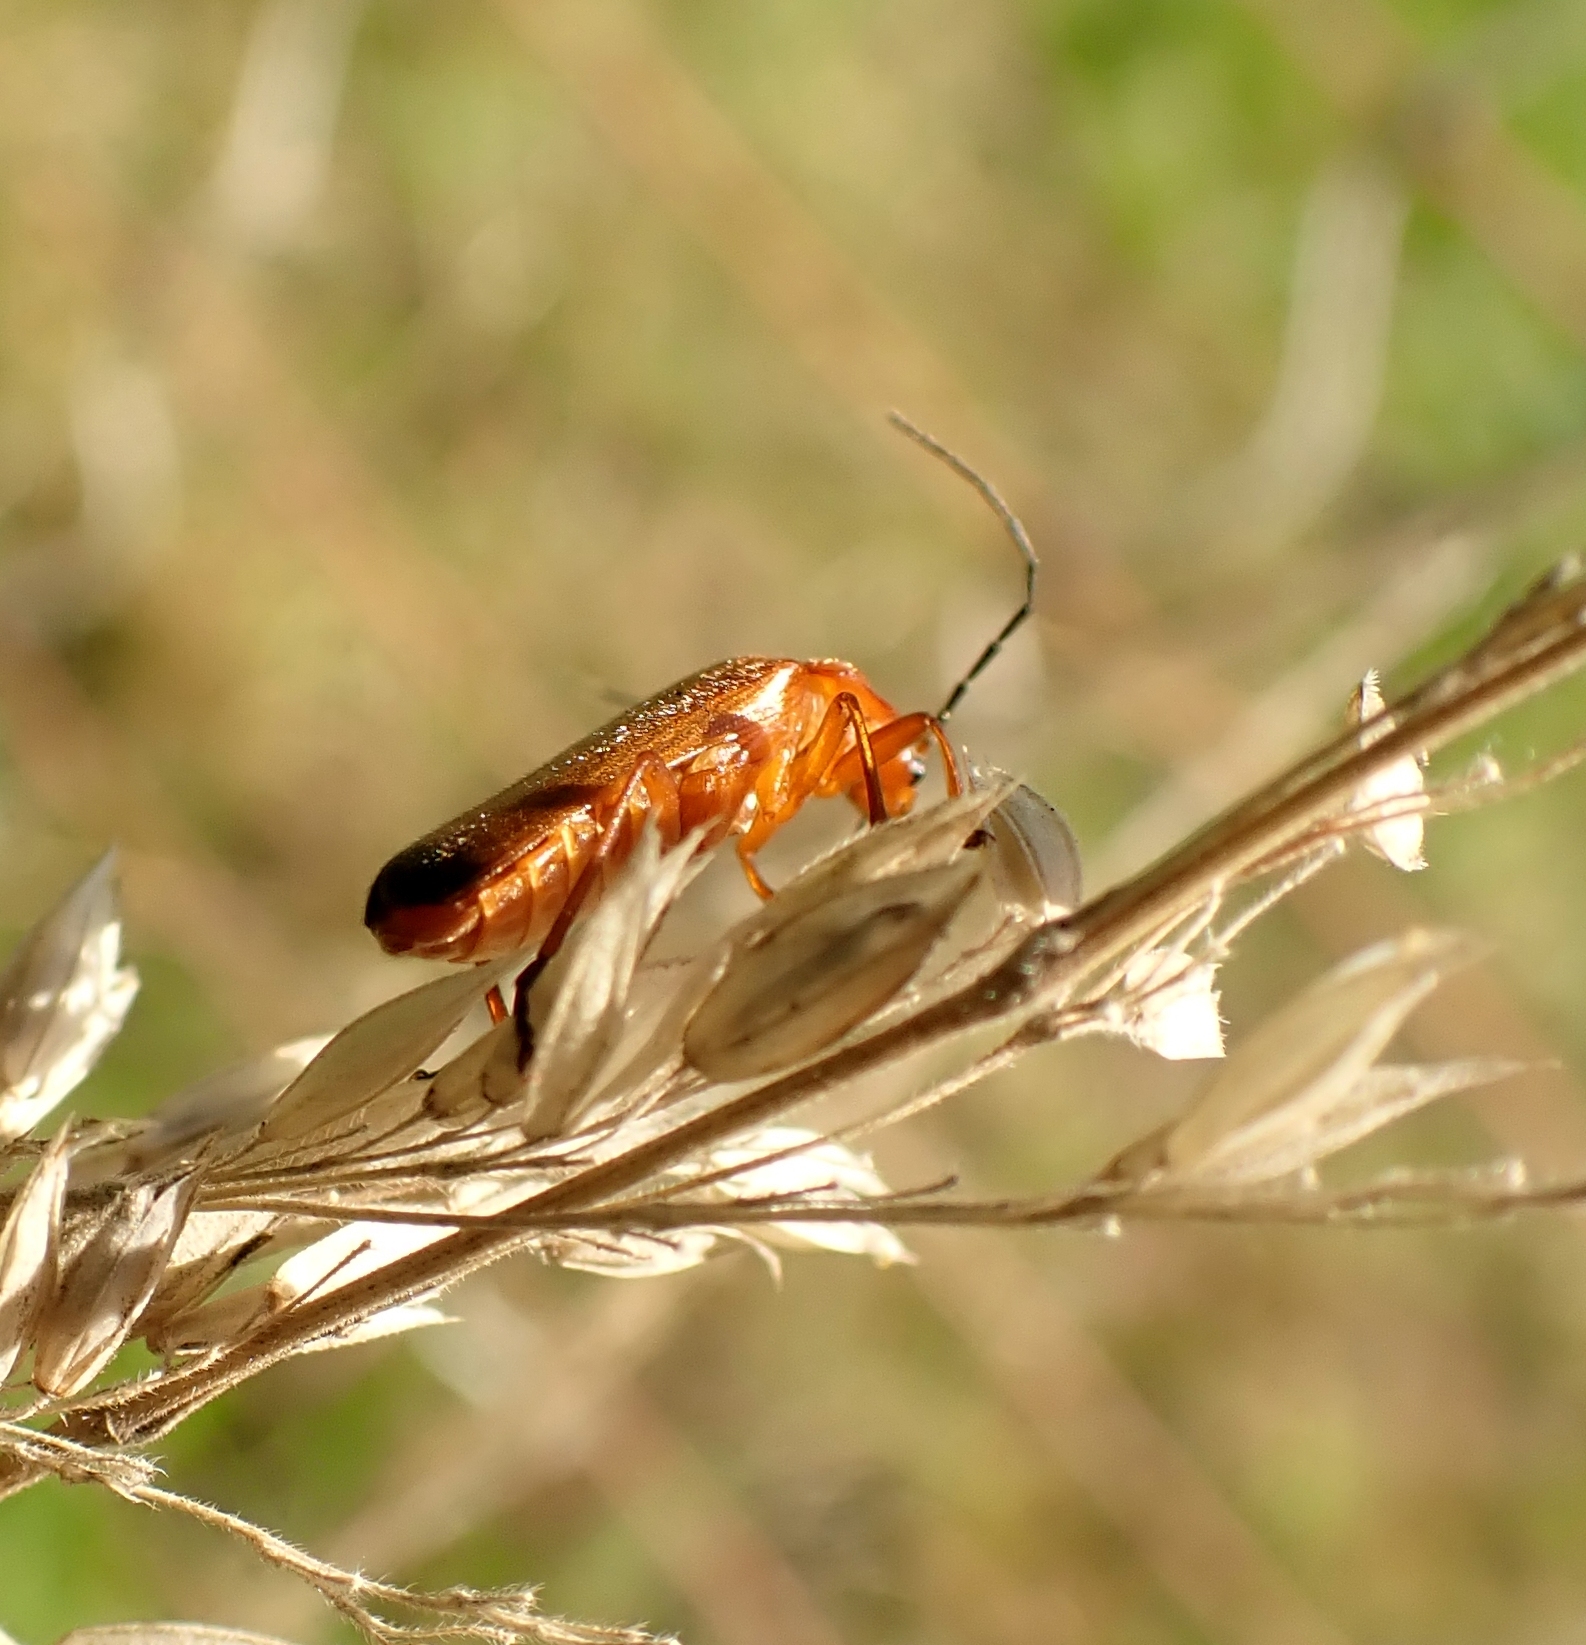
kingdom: Animalia
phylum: Arthropoda
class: Insecta
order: Coleoptera
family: Cantharidae
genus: Rhagonycha
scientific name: Rhagonycha fulva
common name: Common red soldier beetle
